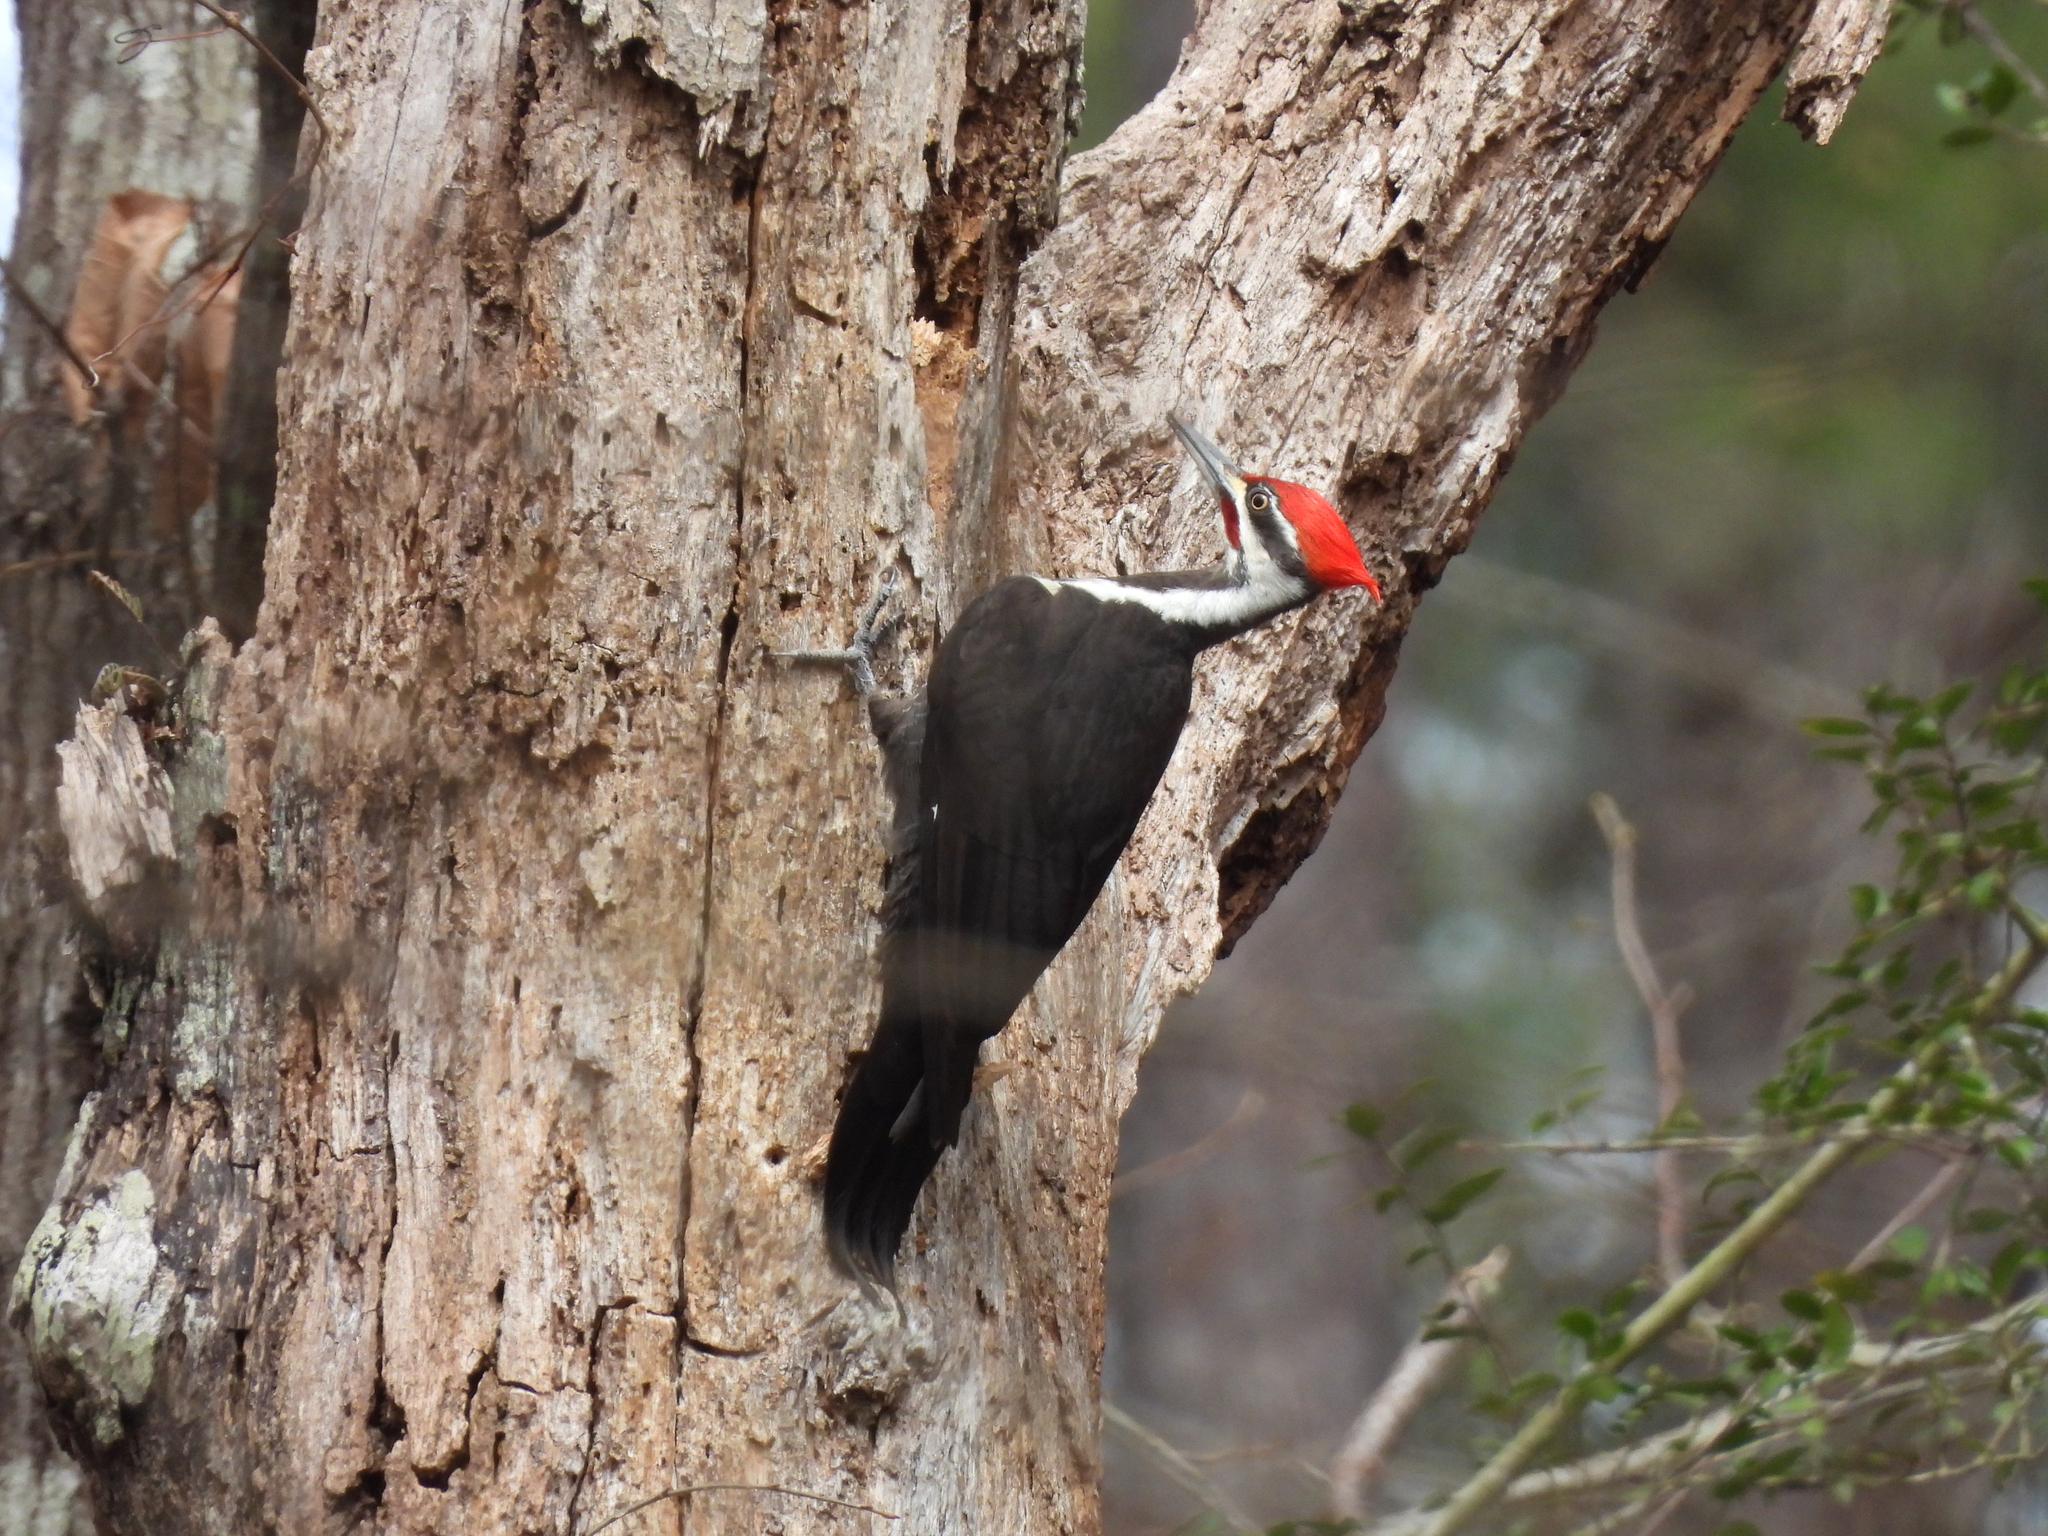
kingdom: Animalia
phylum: Chordata
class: Aves
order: Piciformes
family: Picidae
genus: Dryocopus
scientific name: Dryocopus pileatus
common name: Pileated woodpecker
